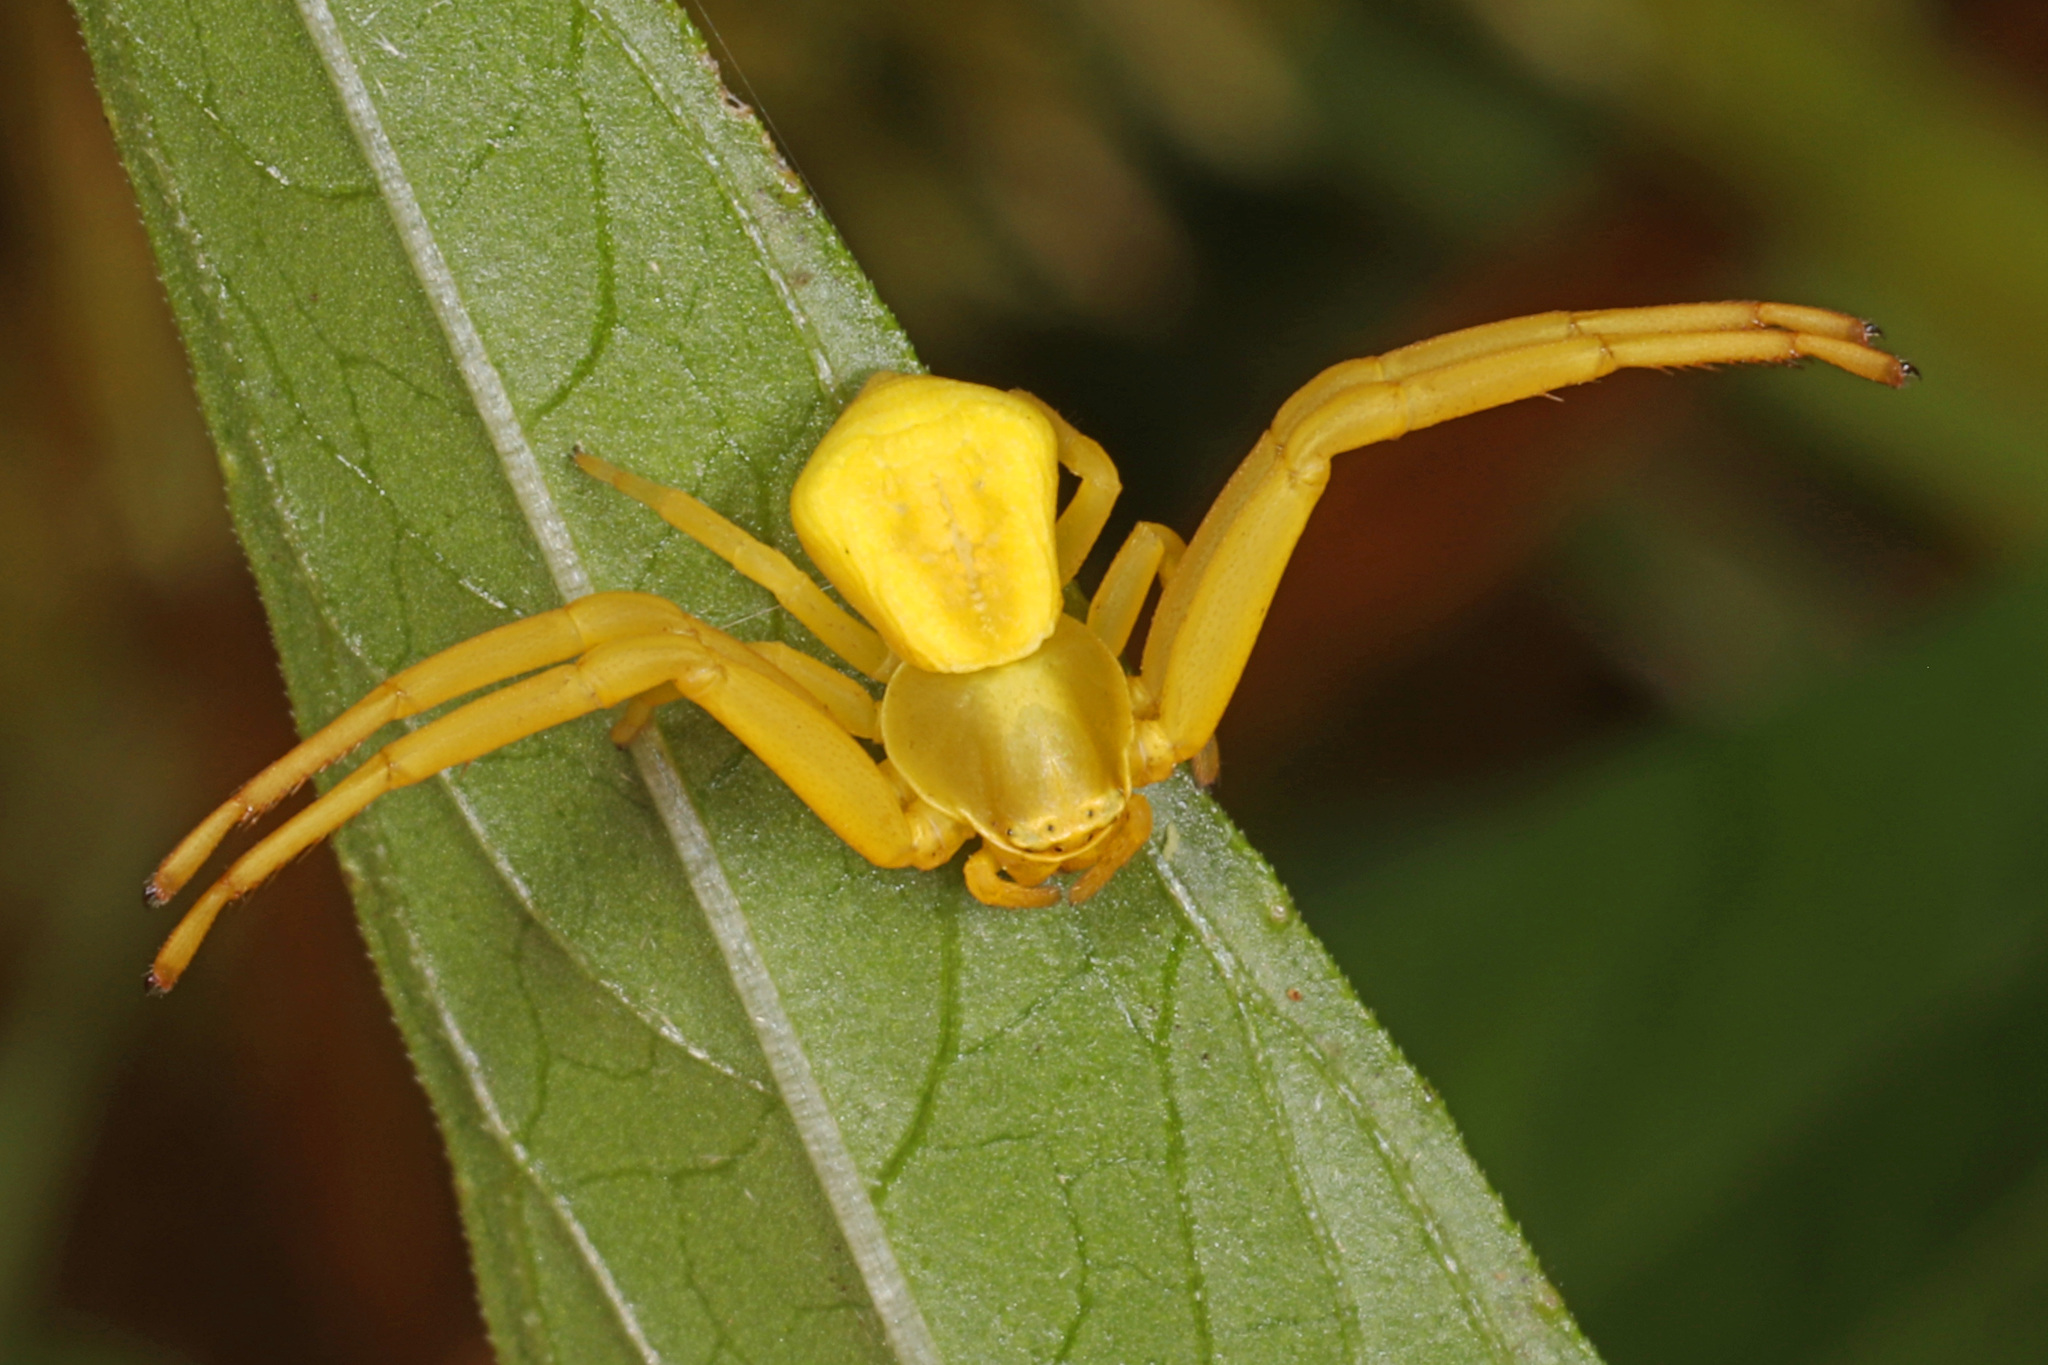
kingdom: Animalia
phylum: Arthropoda
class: Arachnida
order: Araneae
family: Thomisidae
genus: Misumenoides
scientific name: Misumenoides formosipes
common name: White-banded crab spider
